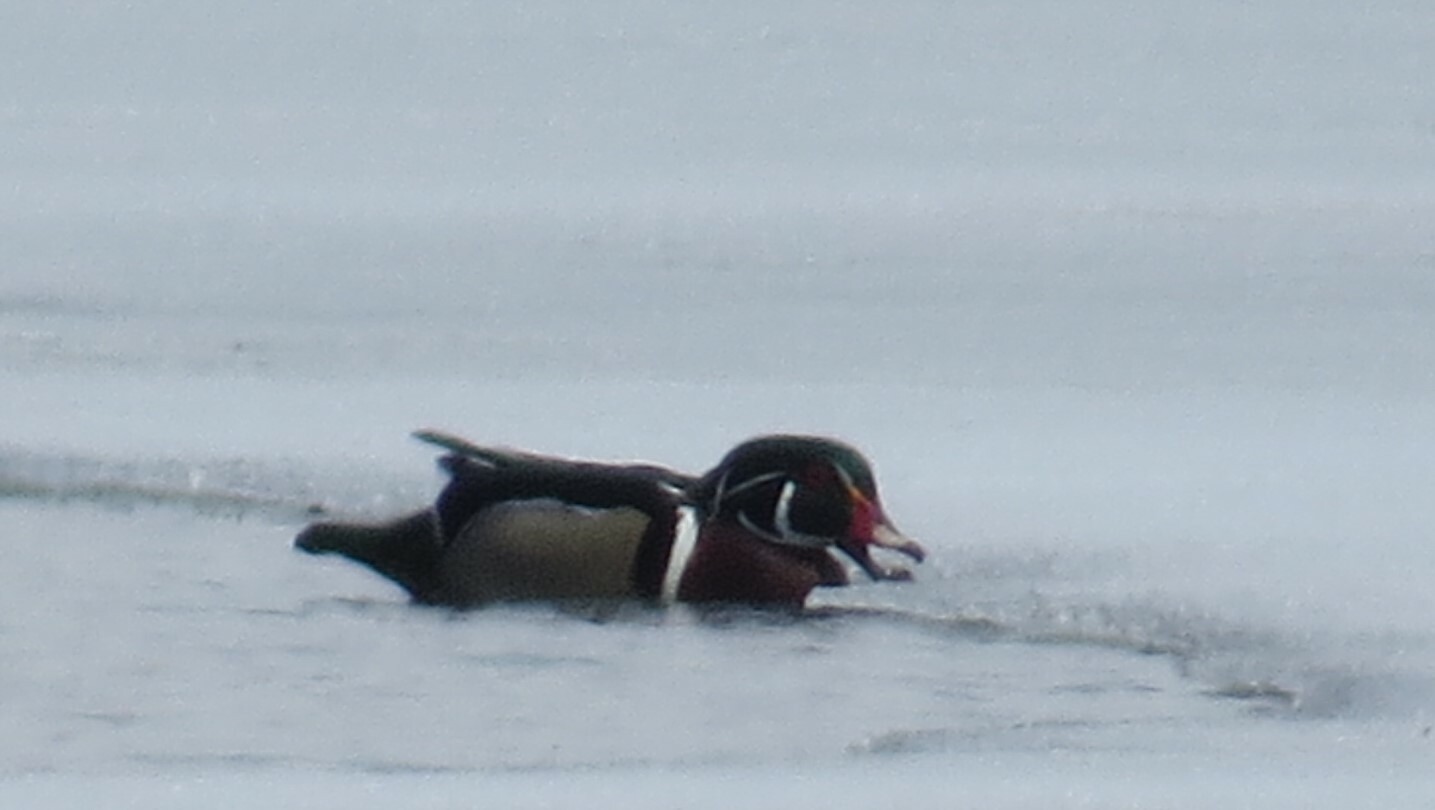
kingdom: Animalia
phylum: Chordata
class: Aves
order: Anseriformes
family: Anatidae
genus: Aix
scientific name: Aix sponsa
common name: Wood duck
